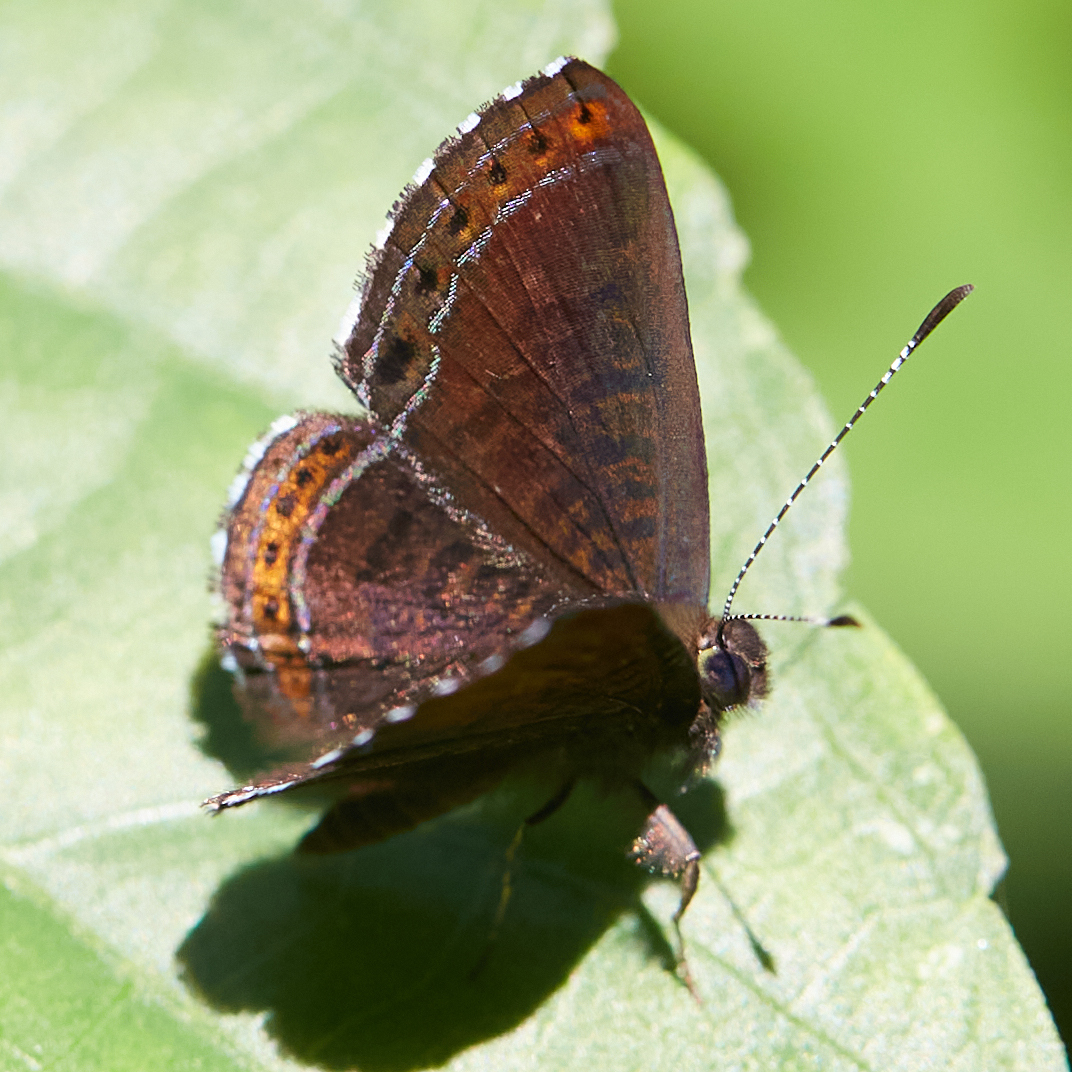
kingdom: Animalia
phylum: Arthropoda
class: Insecta
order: Lepidoptera
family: Riodinidae
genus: Detritivora
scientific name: Detritivora
